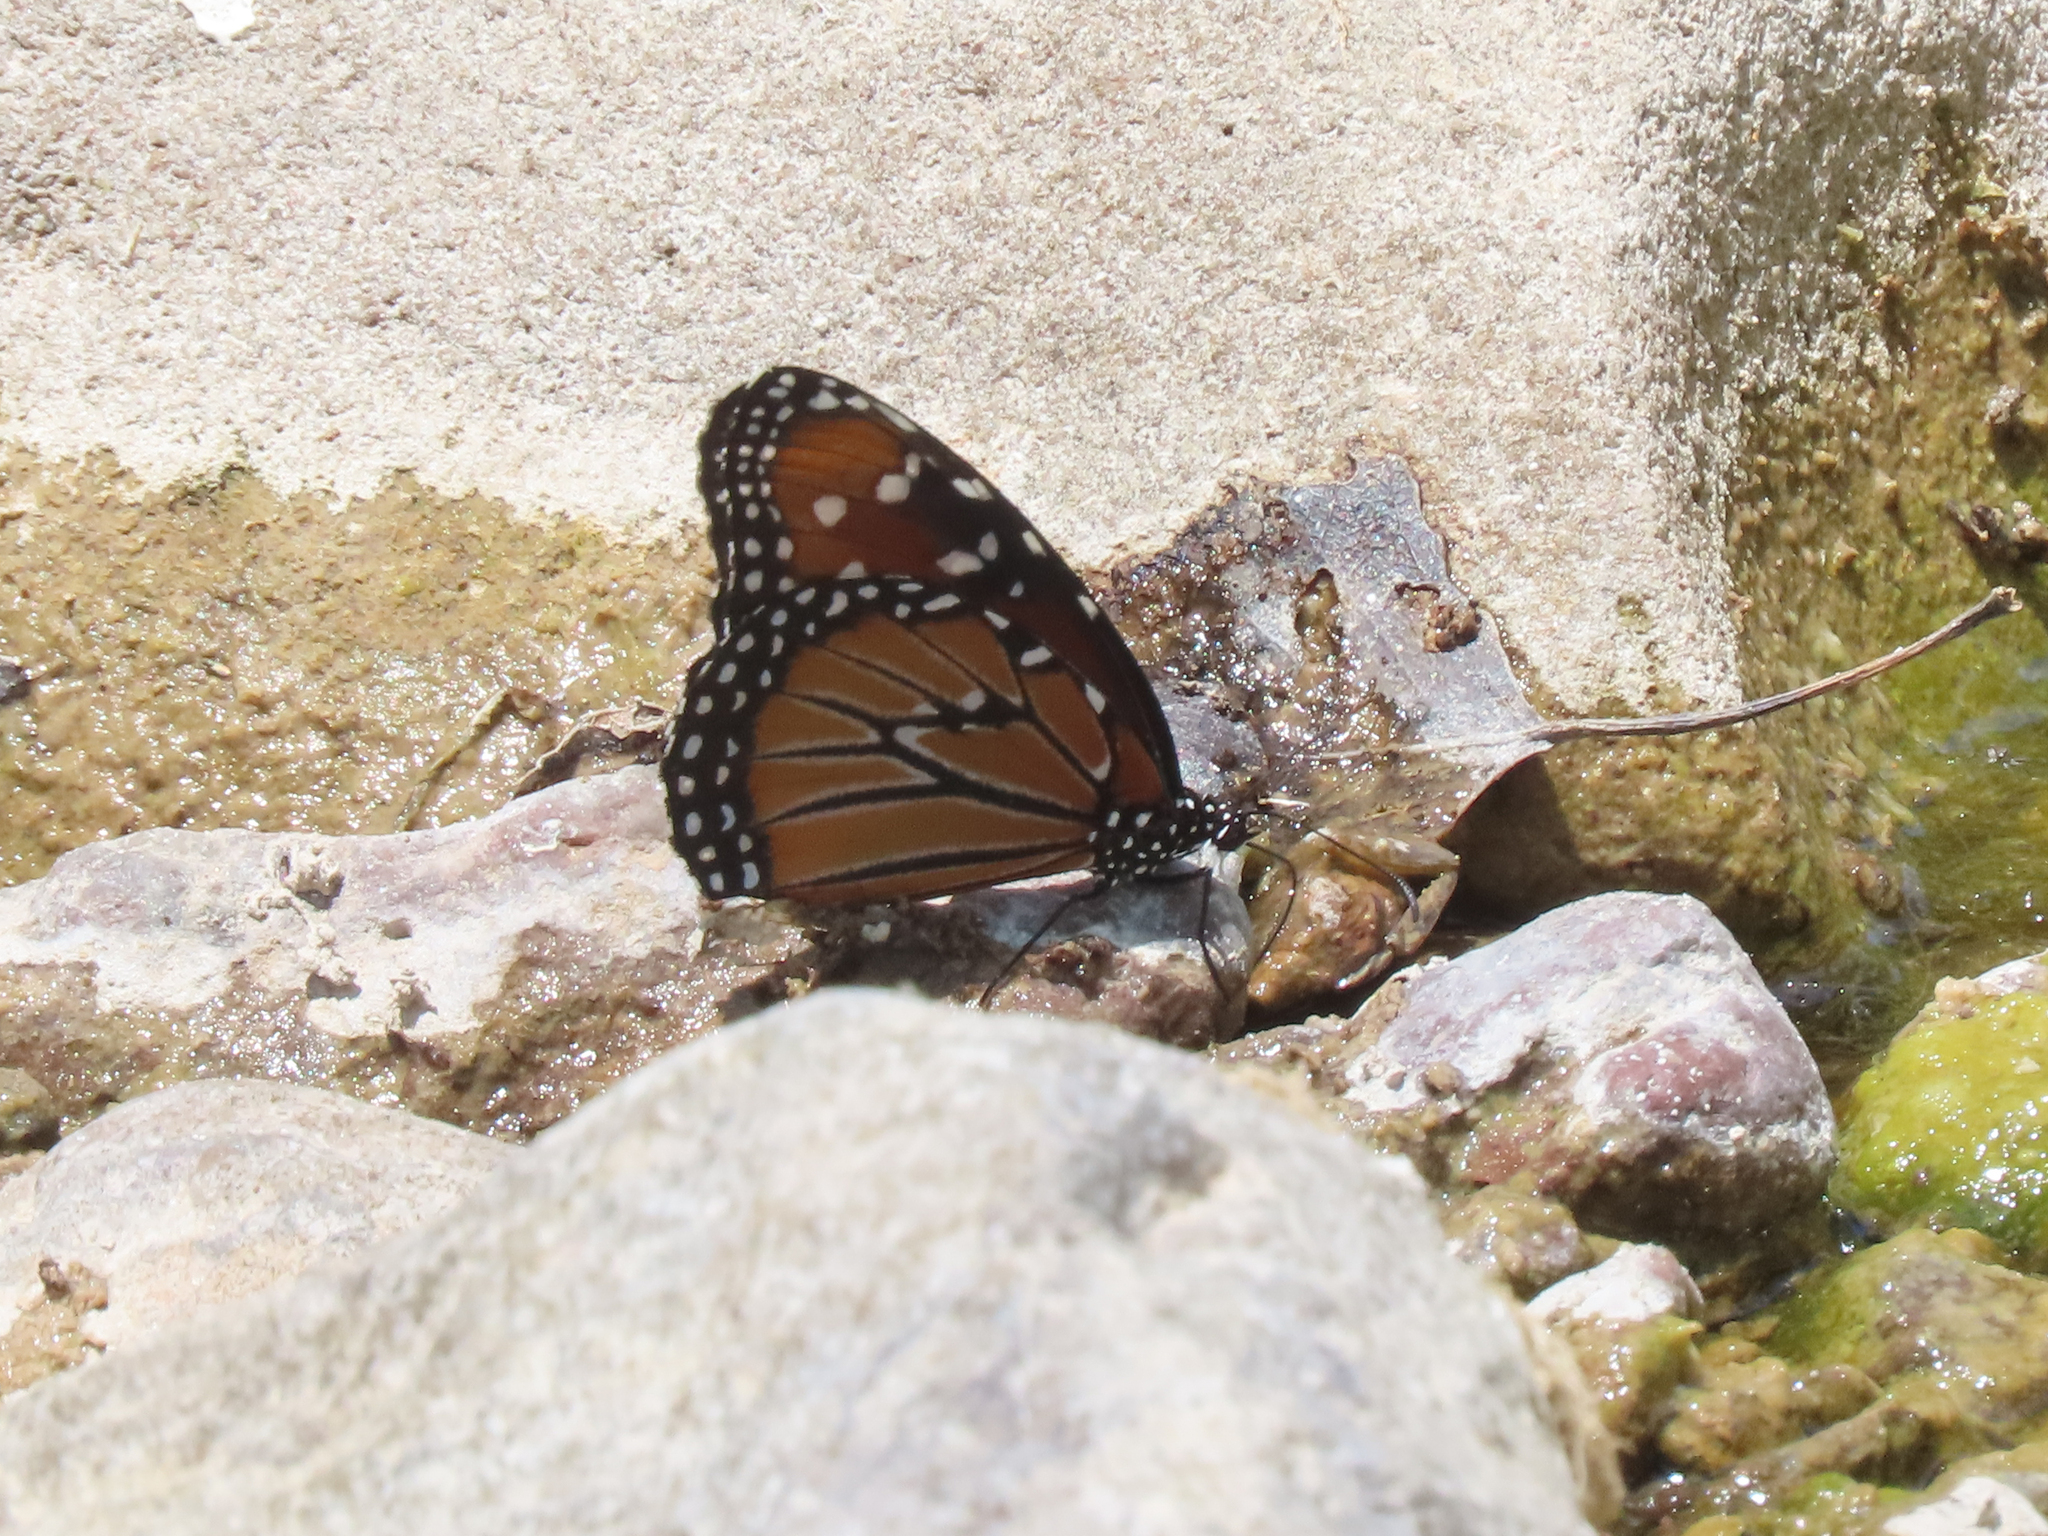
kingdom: Animalia
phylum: Arthropoda
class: Insecta
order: Lepidoptera
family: Nymphalidae
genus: Danaus
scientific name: Danaus gilippus
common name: Queen
